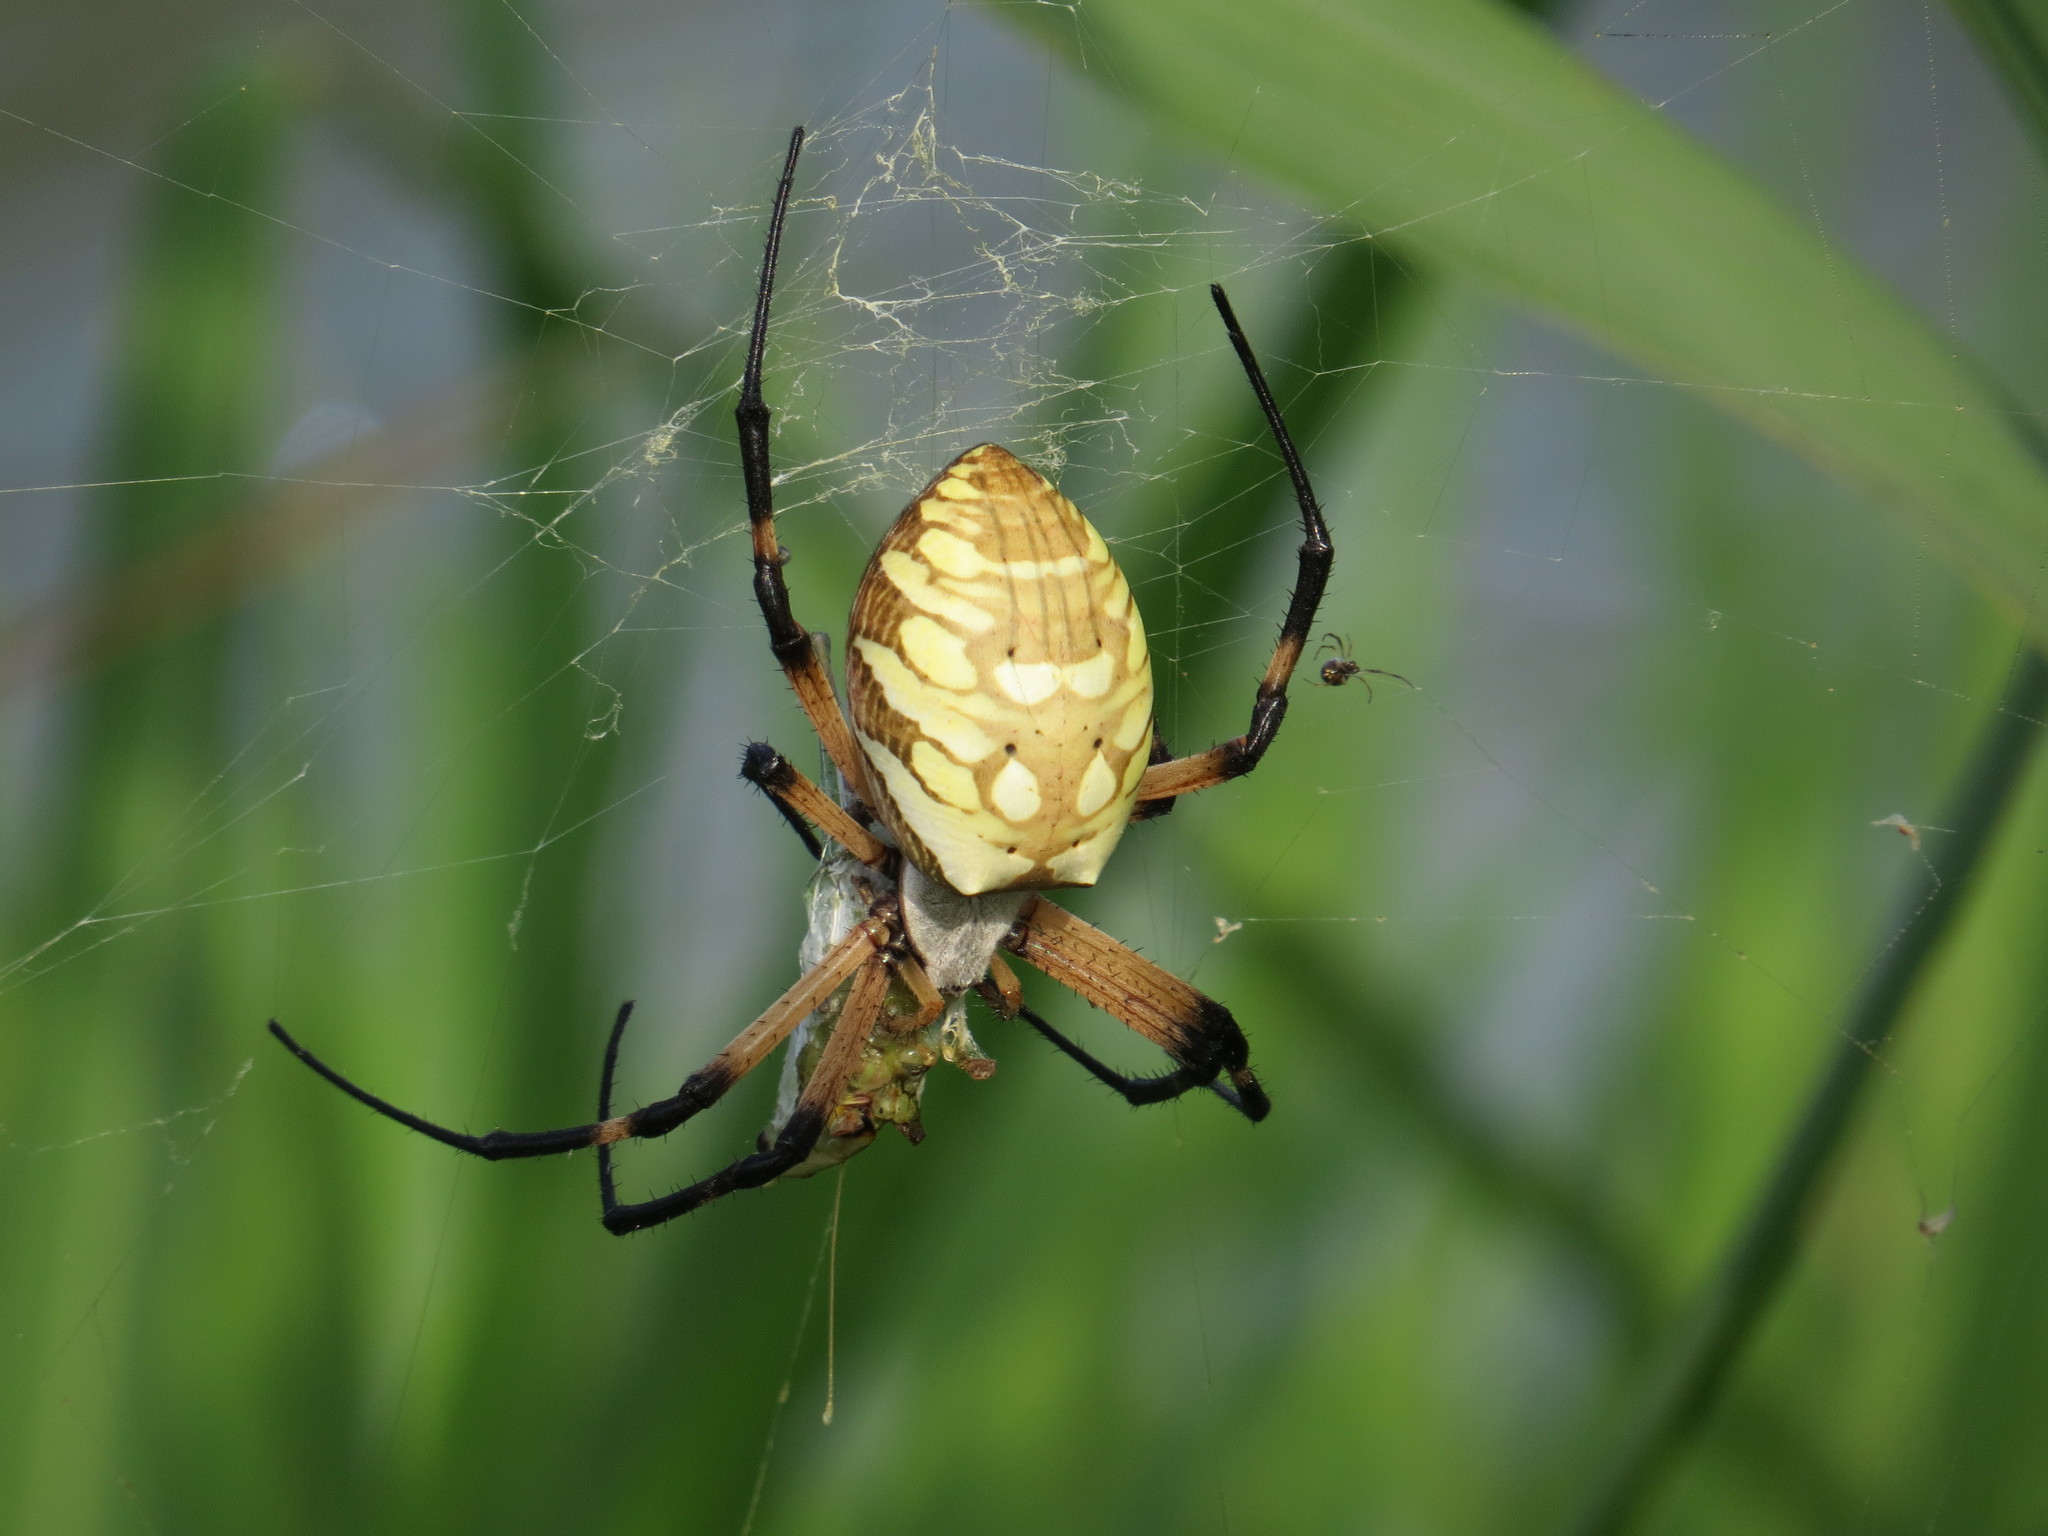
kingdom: Animalia
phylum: Arthropoda
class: Arachnida
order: Araneae
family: Araneidae
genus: Argiope
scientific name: Argiope aurantia
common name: Orb weavers
